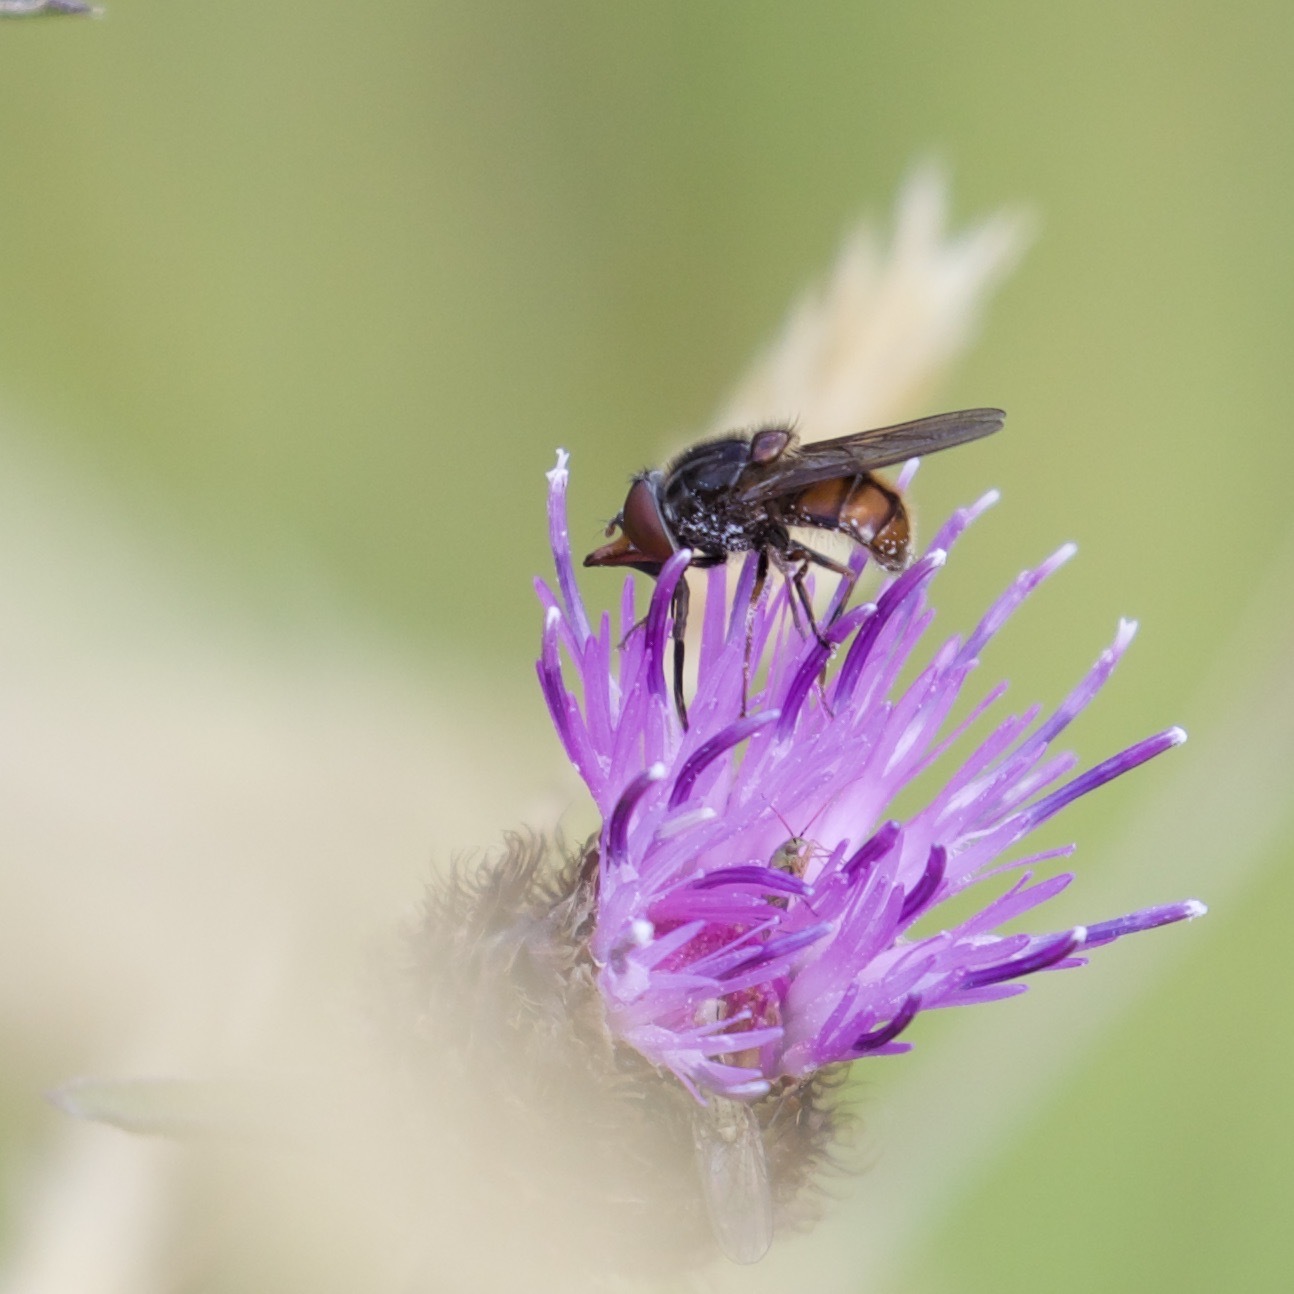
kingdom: Animalia
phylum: Arthropoda
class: Insecta
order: Diptera
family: Syrphidae
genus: Rhingia
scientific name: Rhingia campestris
